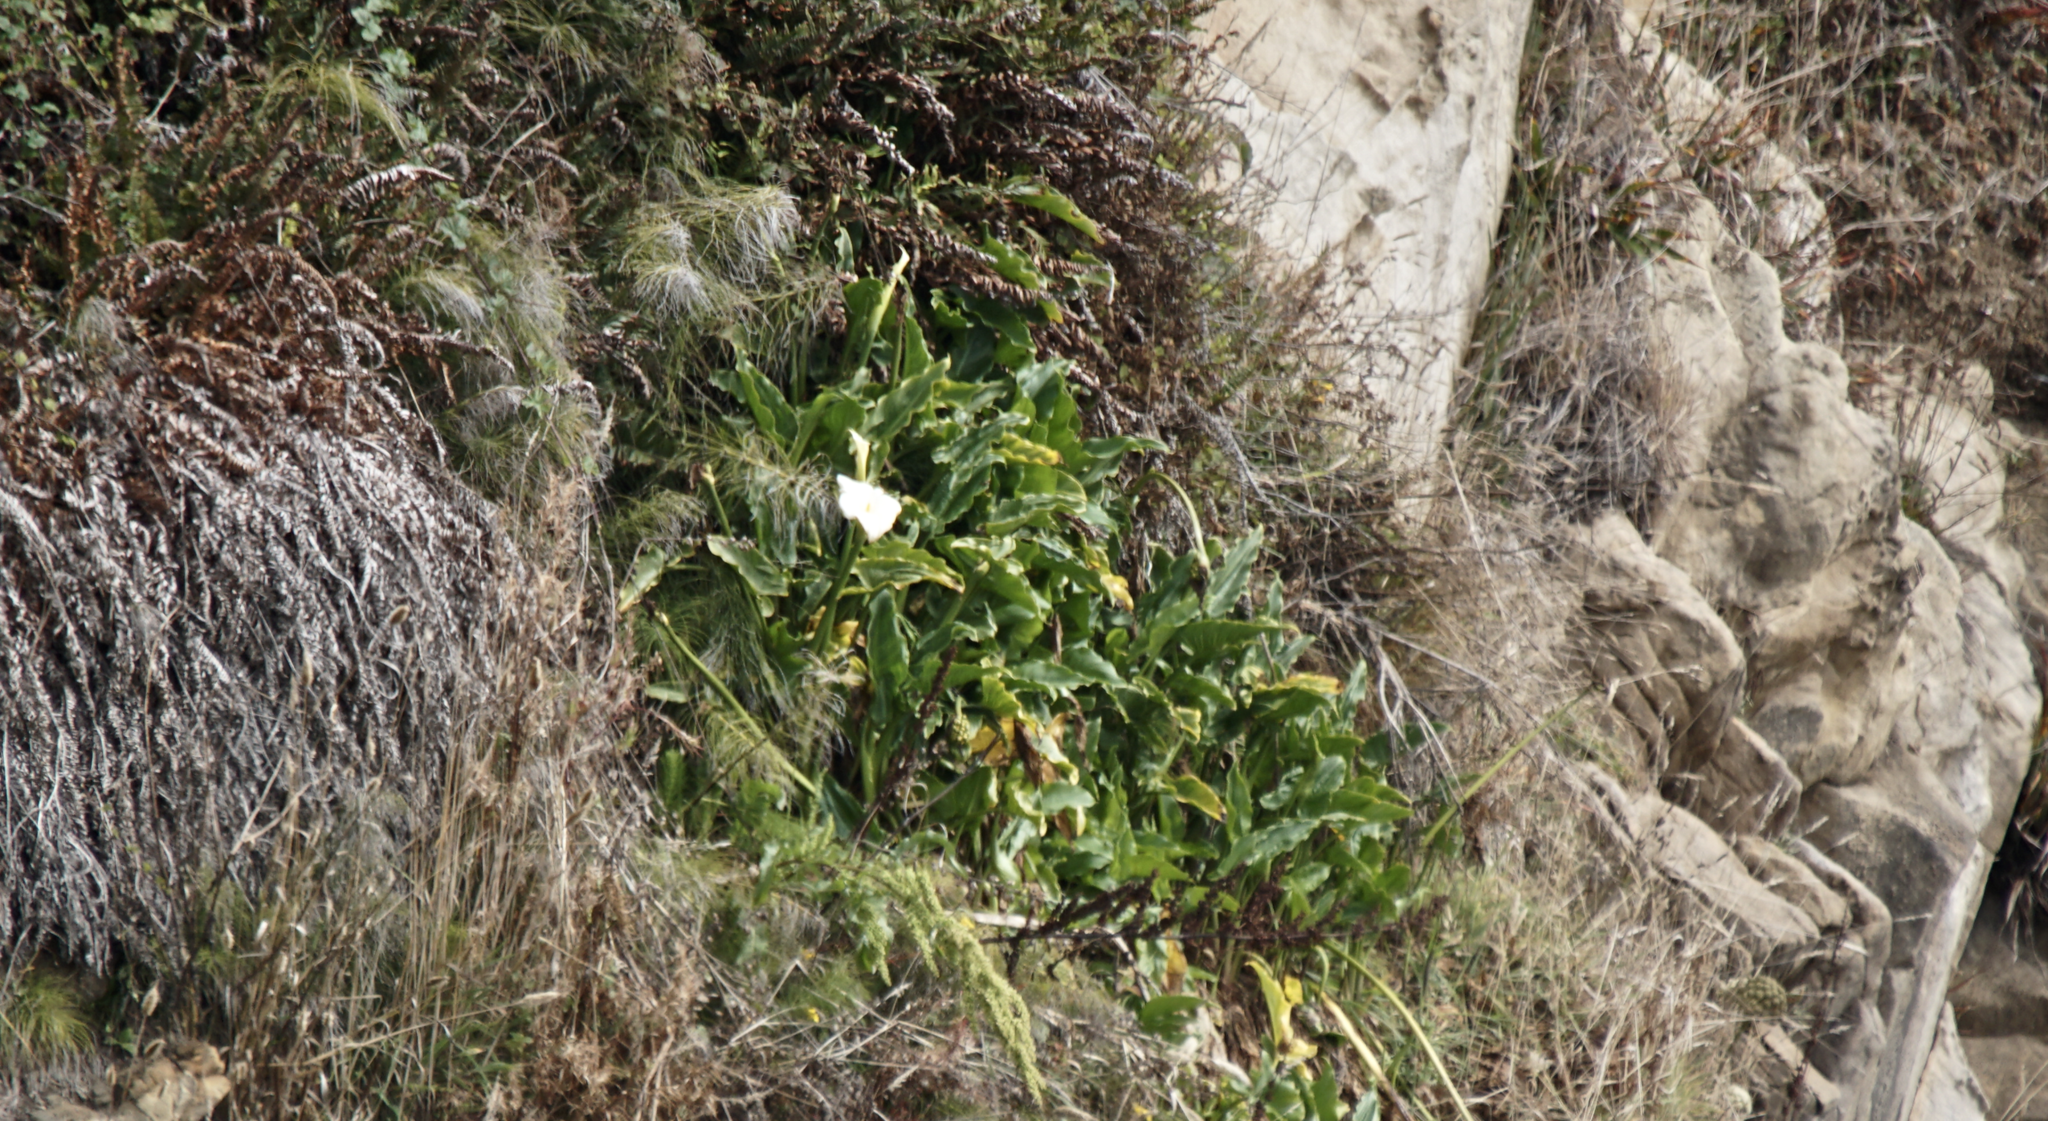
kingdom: Plantae
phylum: Tracheophyta
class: Liliopsida
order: Alismatales
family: Araceae
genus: Zantedeschia
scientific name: Zantedeschia aethiopica
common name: Altar-lily
